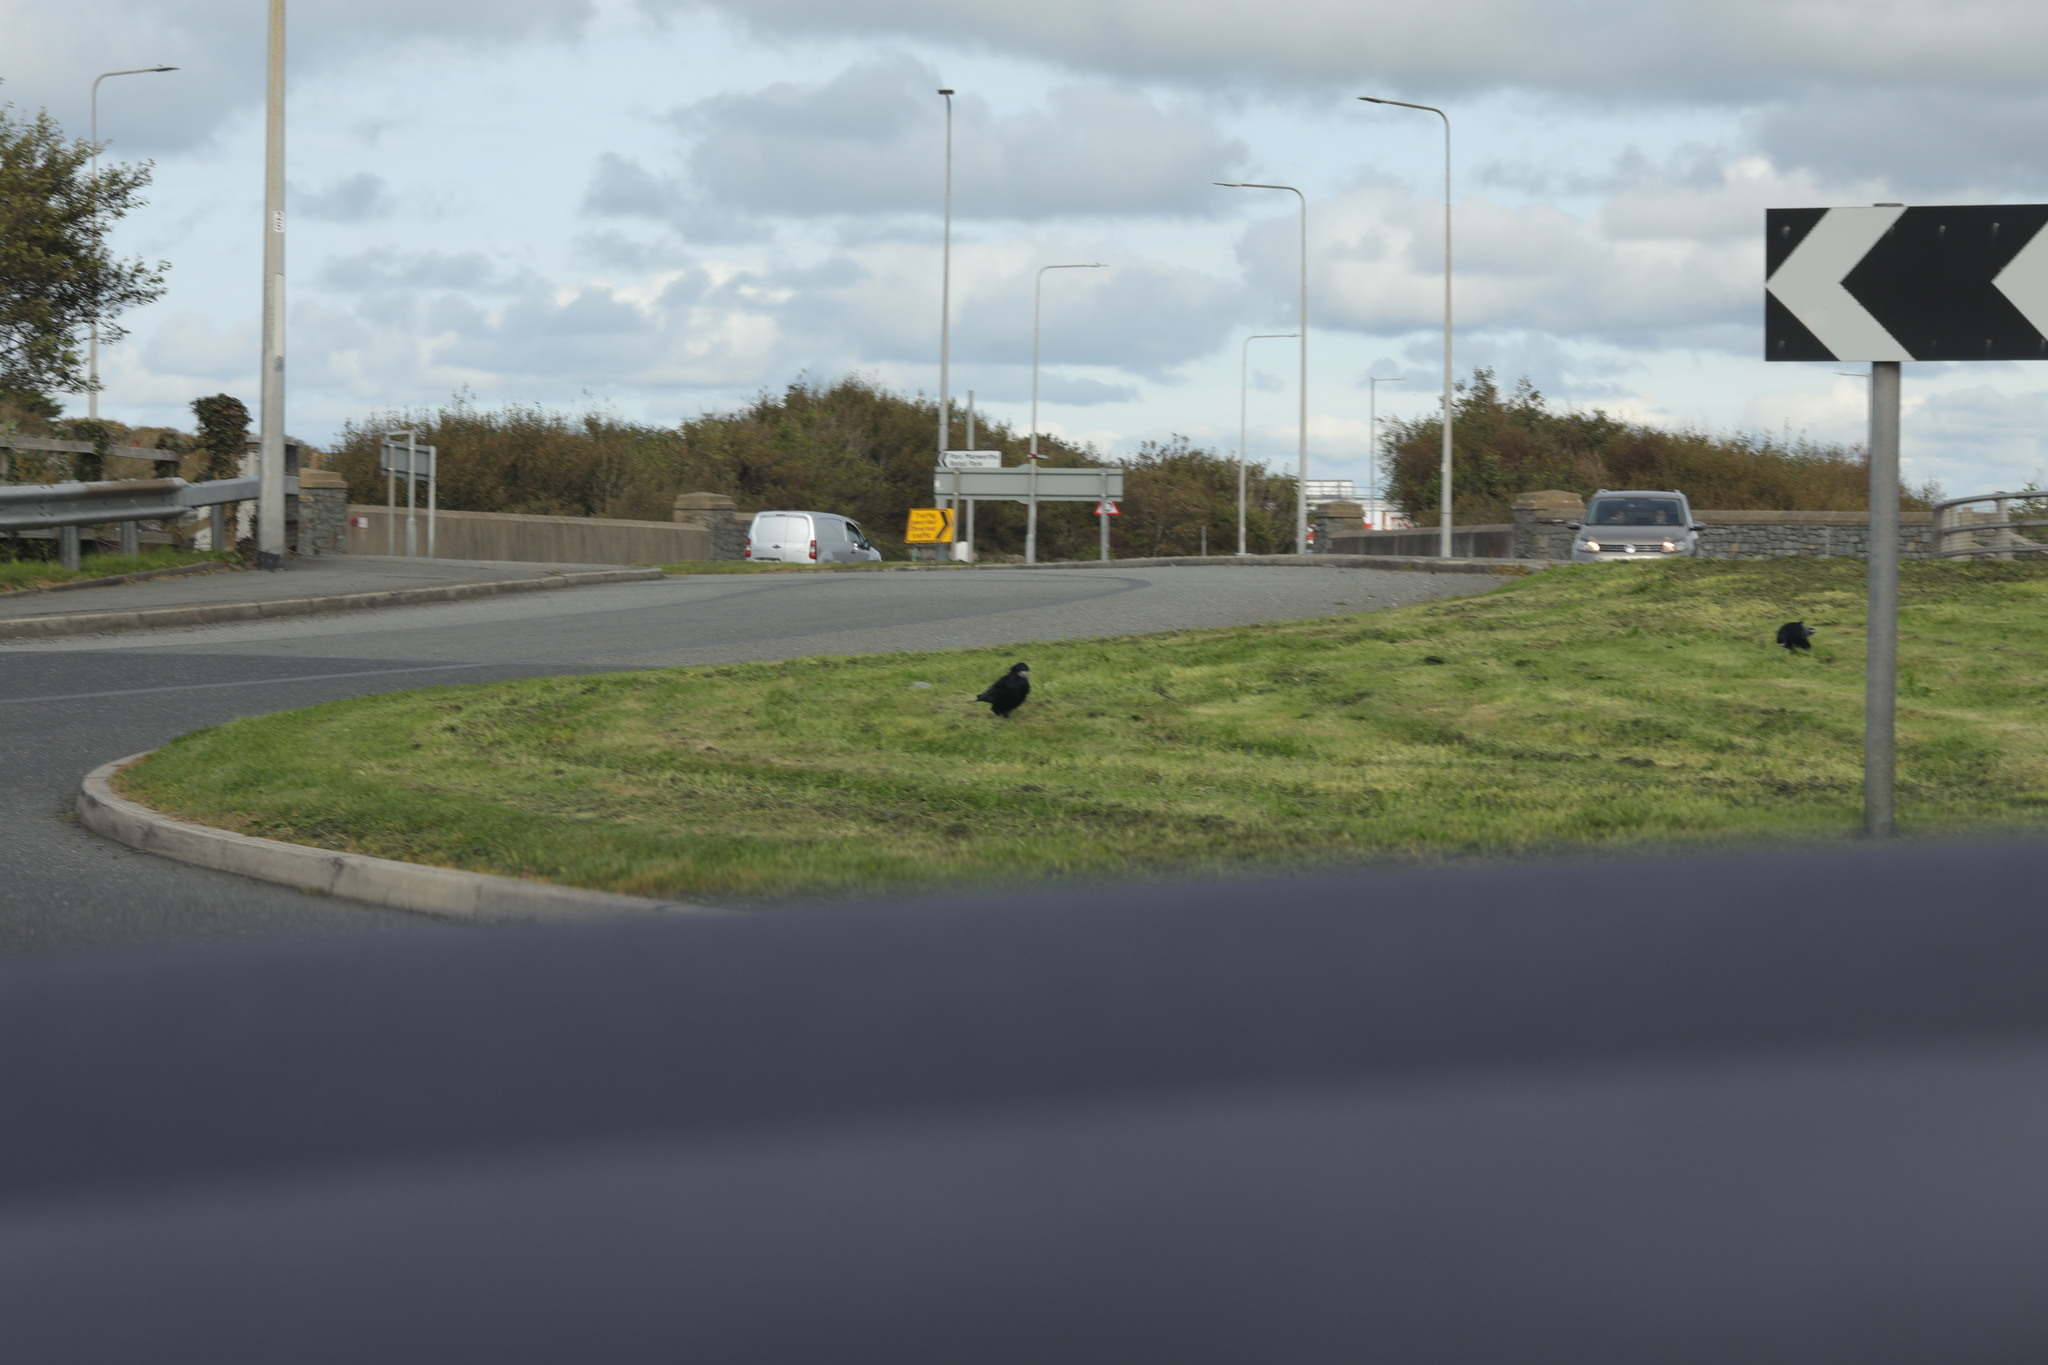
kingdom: Animalia
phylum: Chordata
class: Aves
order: Passeriformes
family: Corvidae
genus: Corvus
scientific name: Corvus frugilegus
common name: Rook
